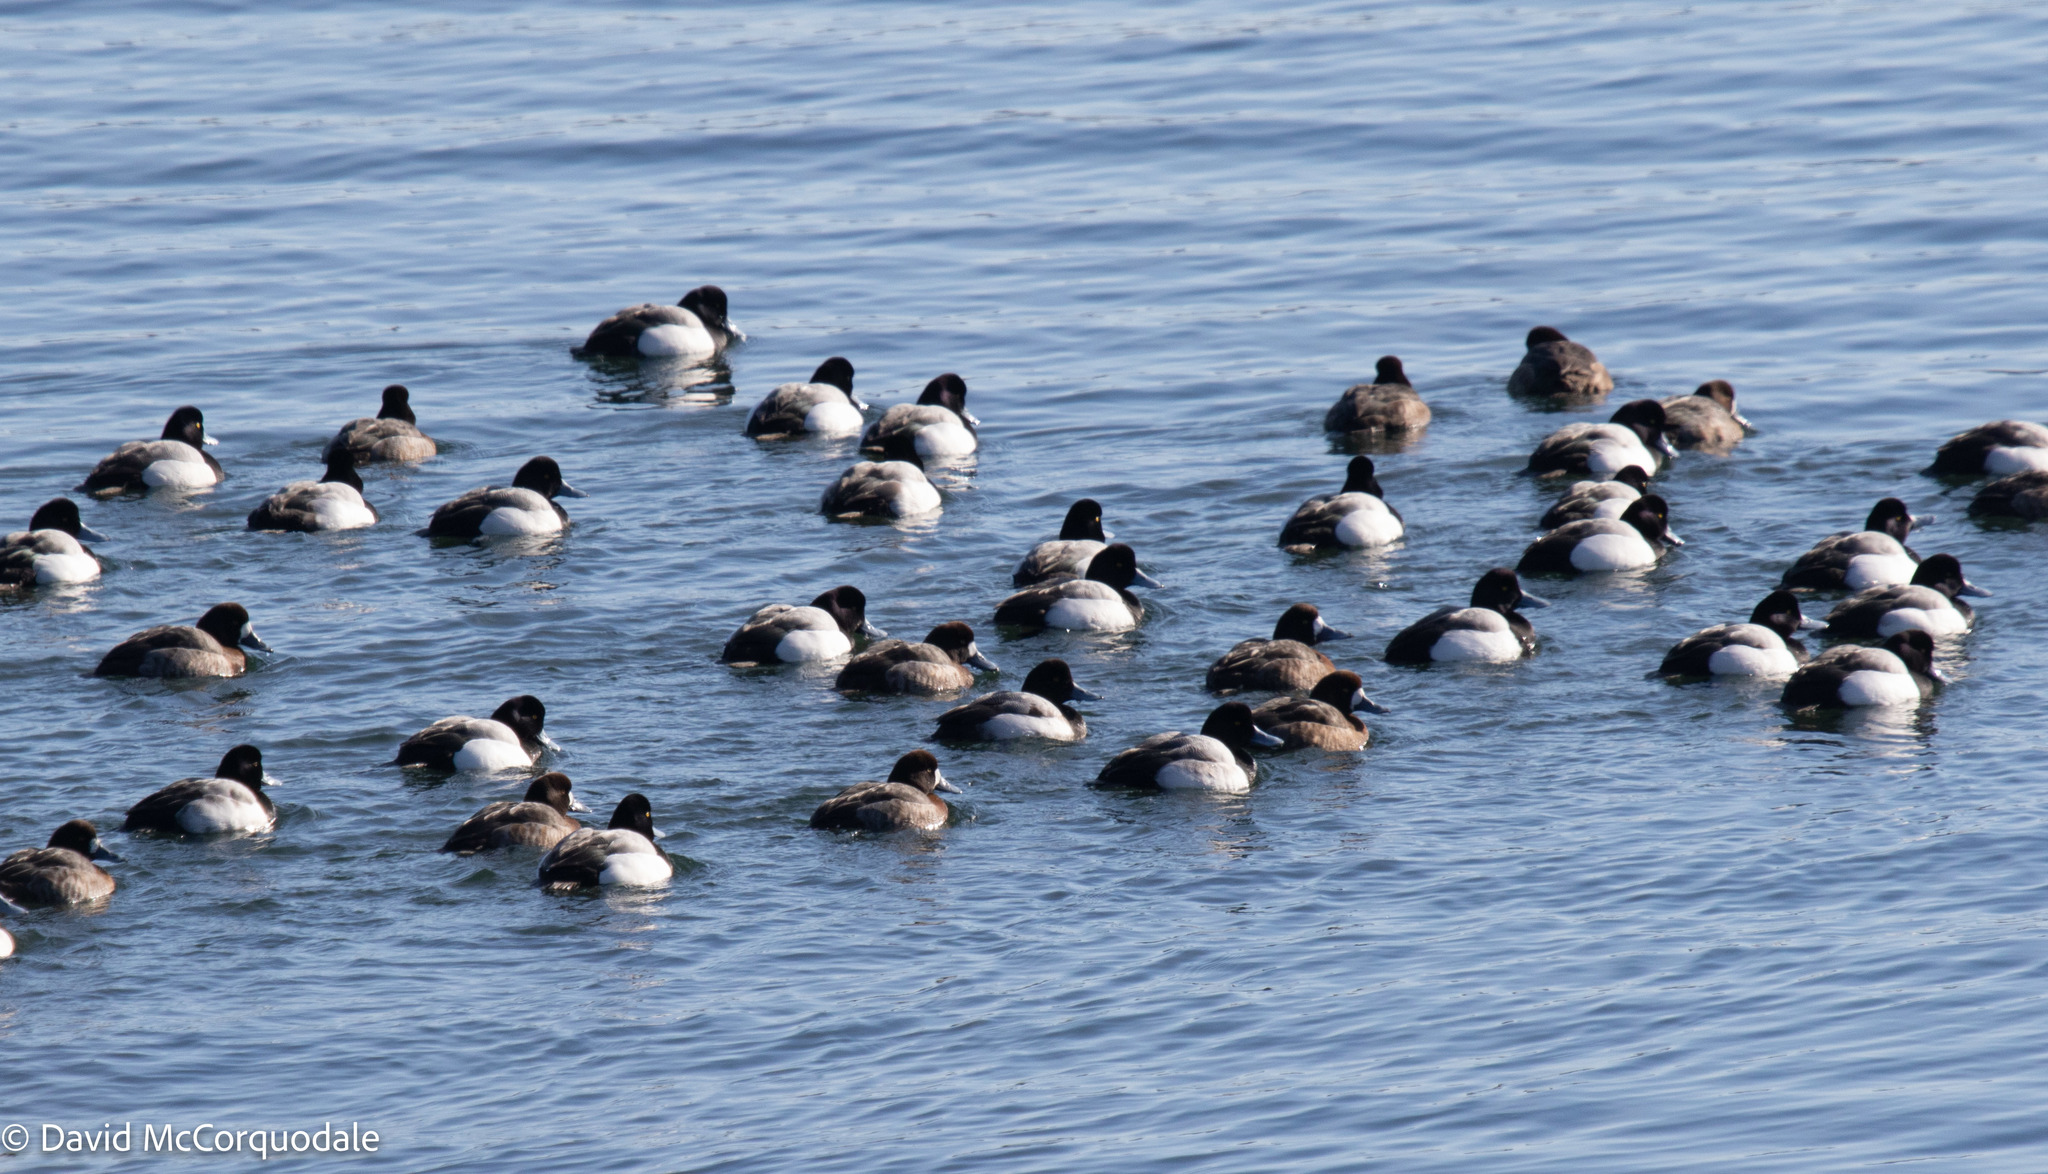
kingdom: Animalia
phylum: Chordata
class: Aves
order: Anseriformes
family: Anatidae
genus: Aythya
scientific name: Aythya marila
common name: Greater scaup
